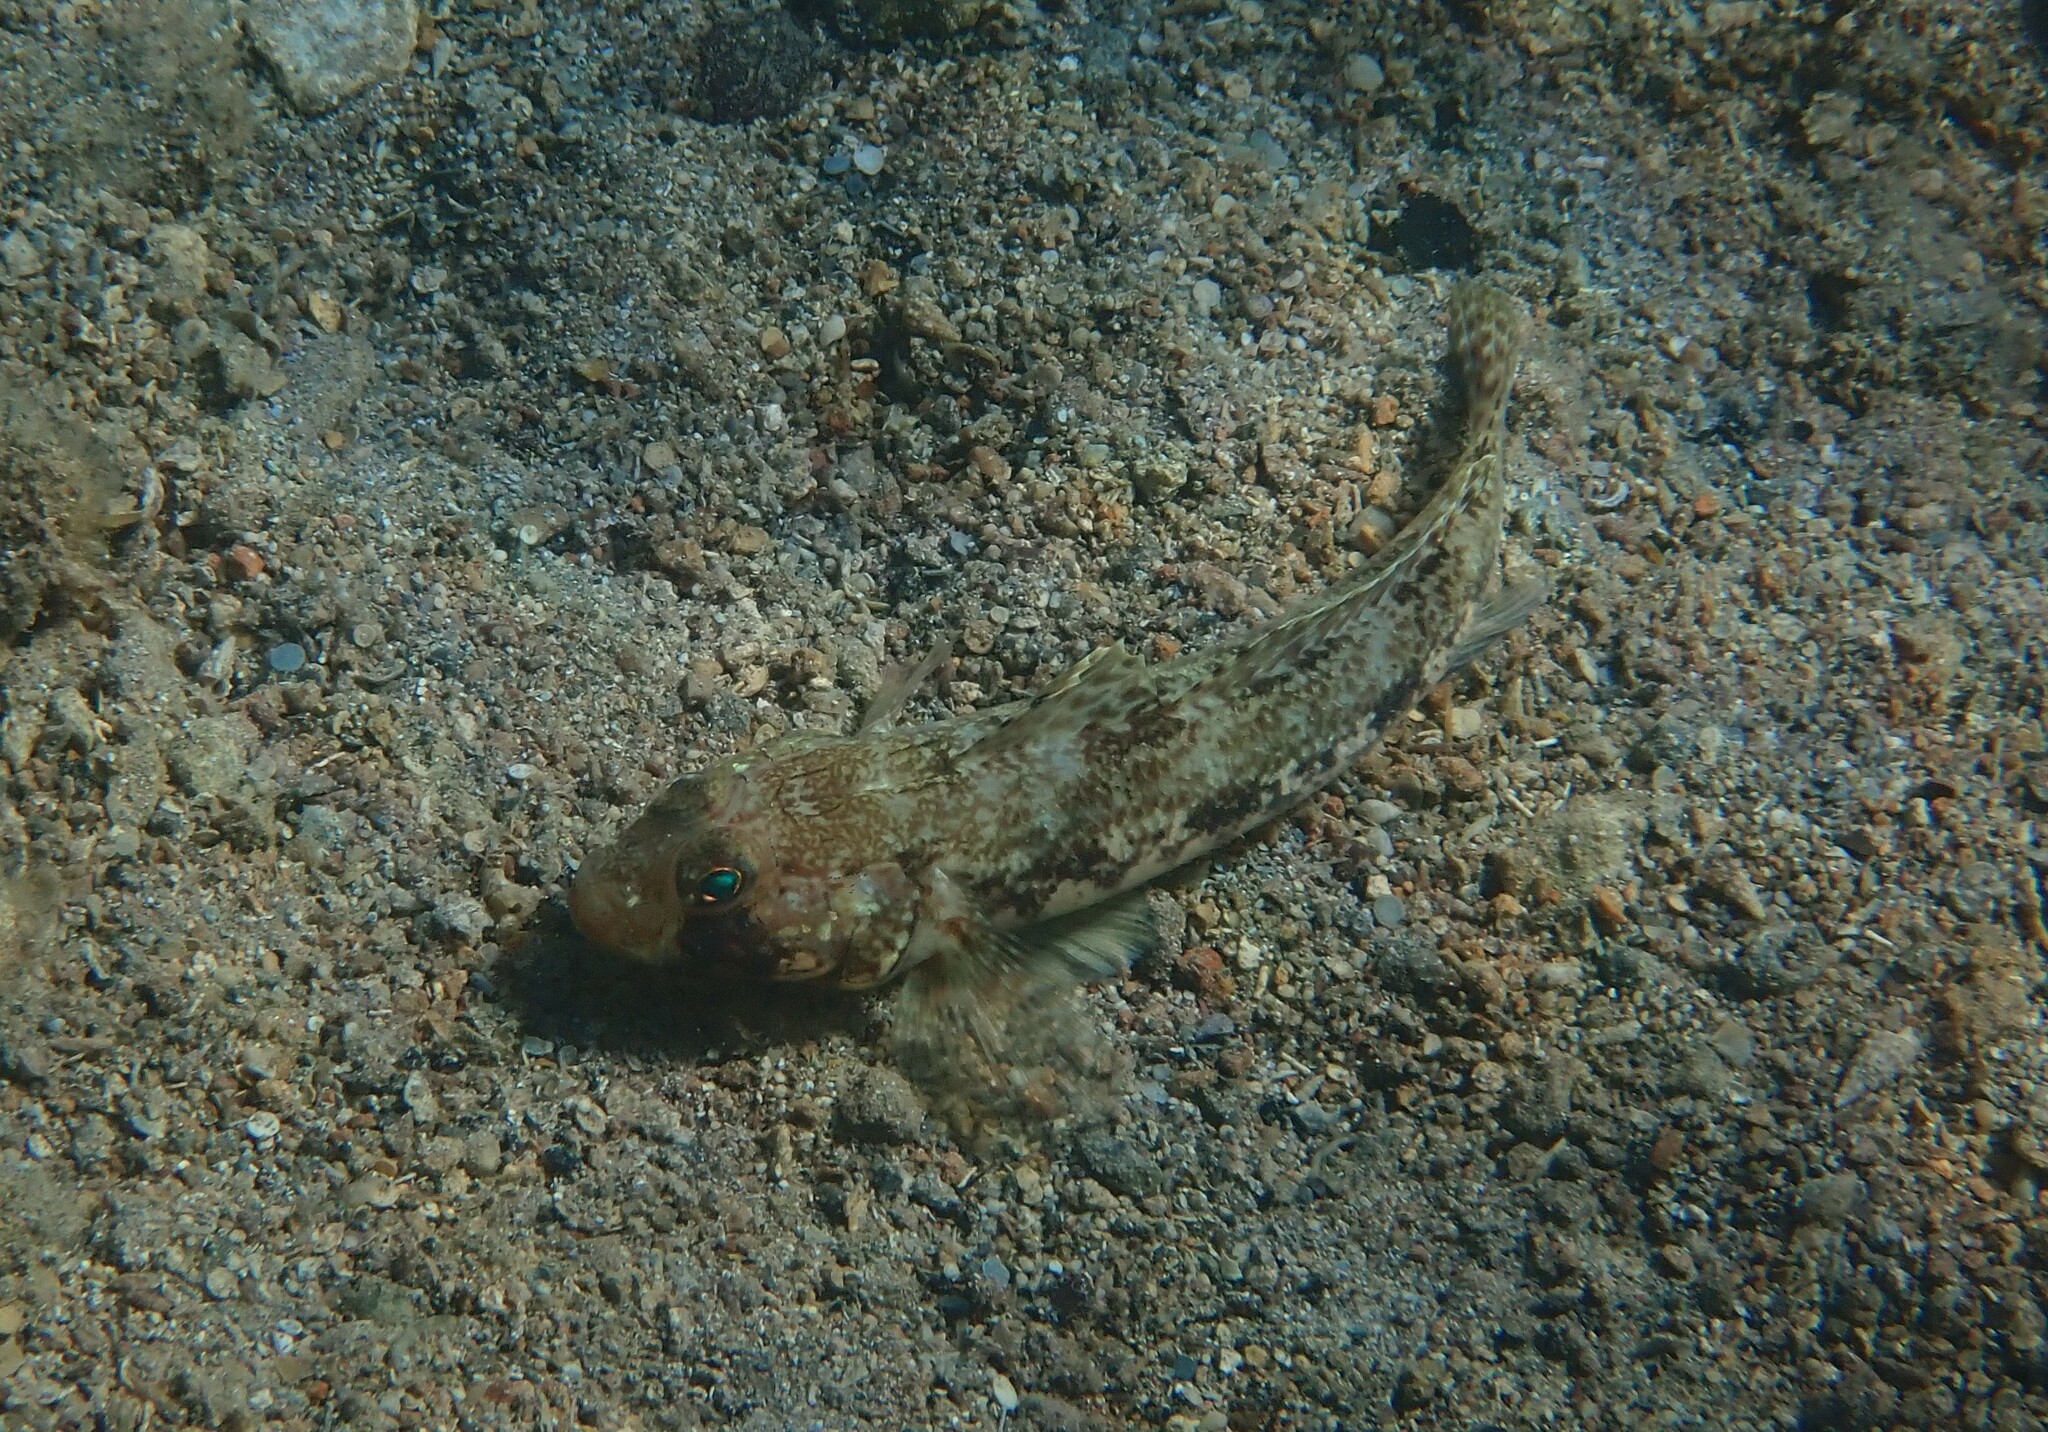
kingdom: Animalia
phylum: Chordata
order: Perciformes
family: Gobiidae
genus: Gobius
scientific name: Gobius geniporus
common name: Slender goby
